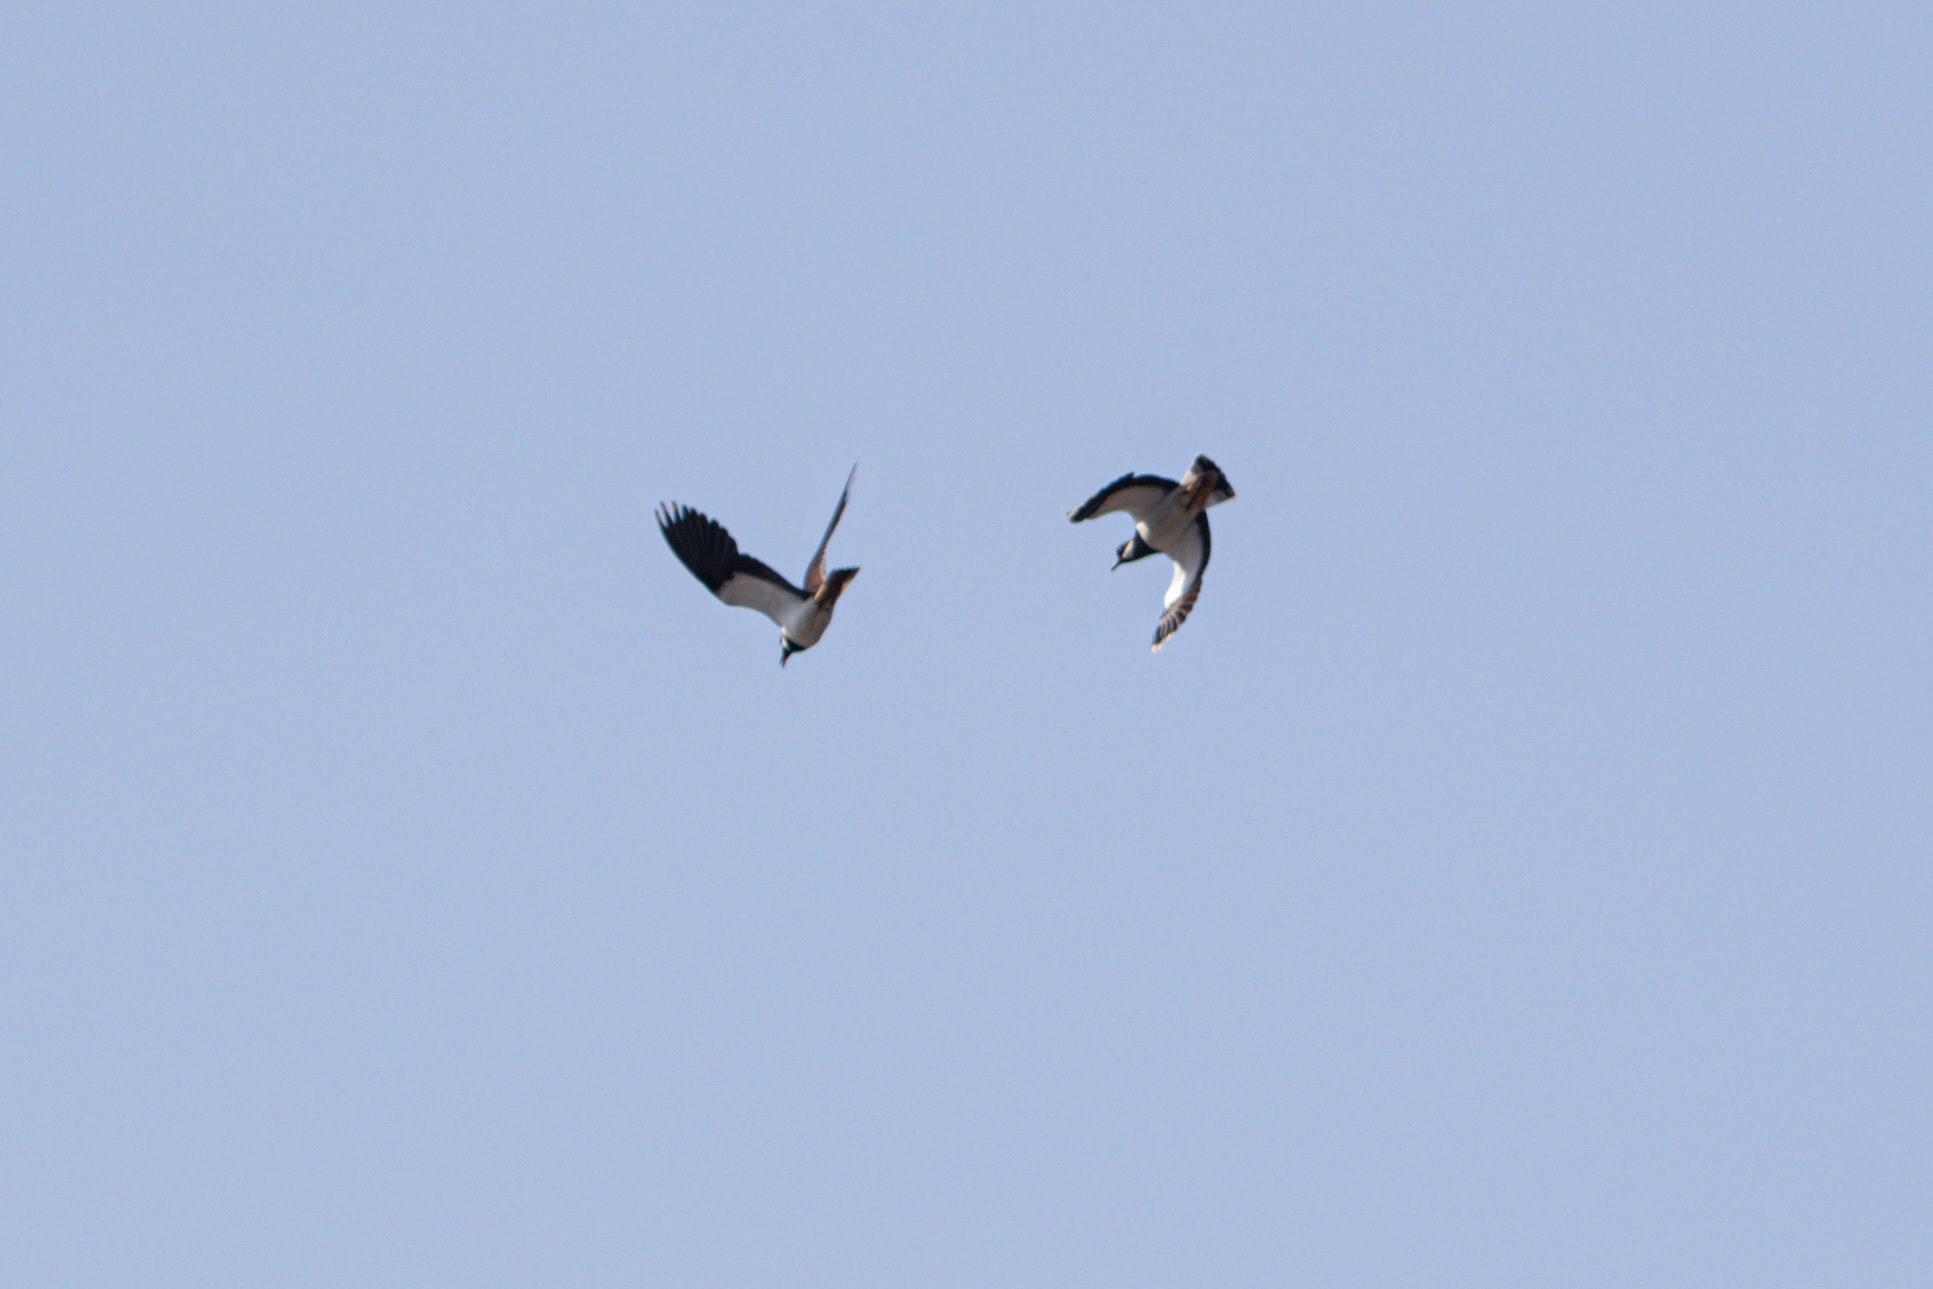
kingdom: Animalia
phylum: Chordata
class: Aves
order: Charadriiformes
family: Charadriidae
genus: Vanellus
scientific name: Vanellus vanellus
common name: Northern lapwing
